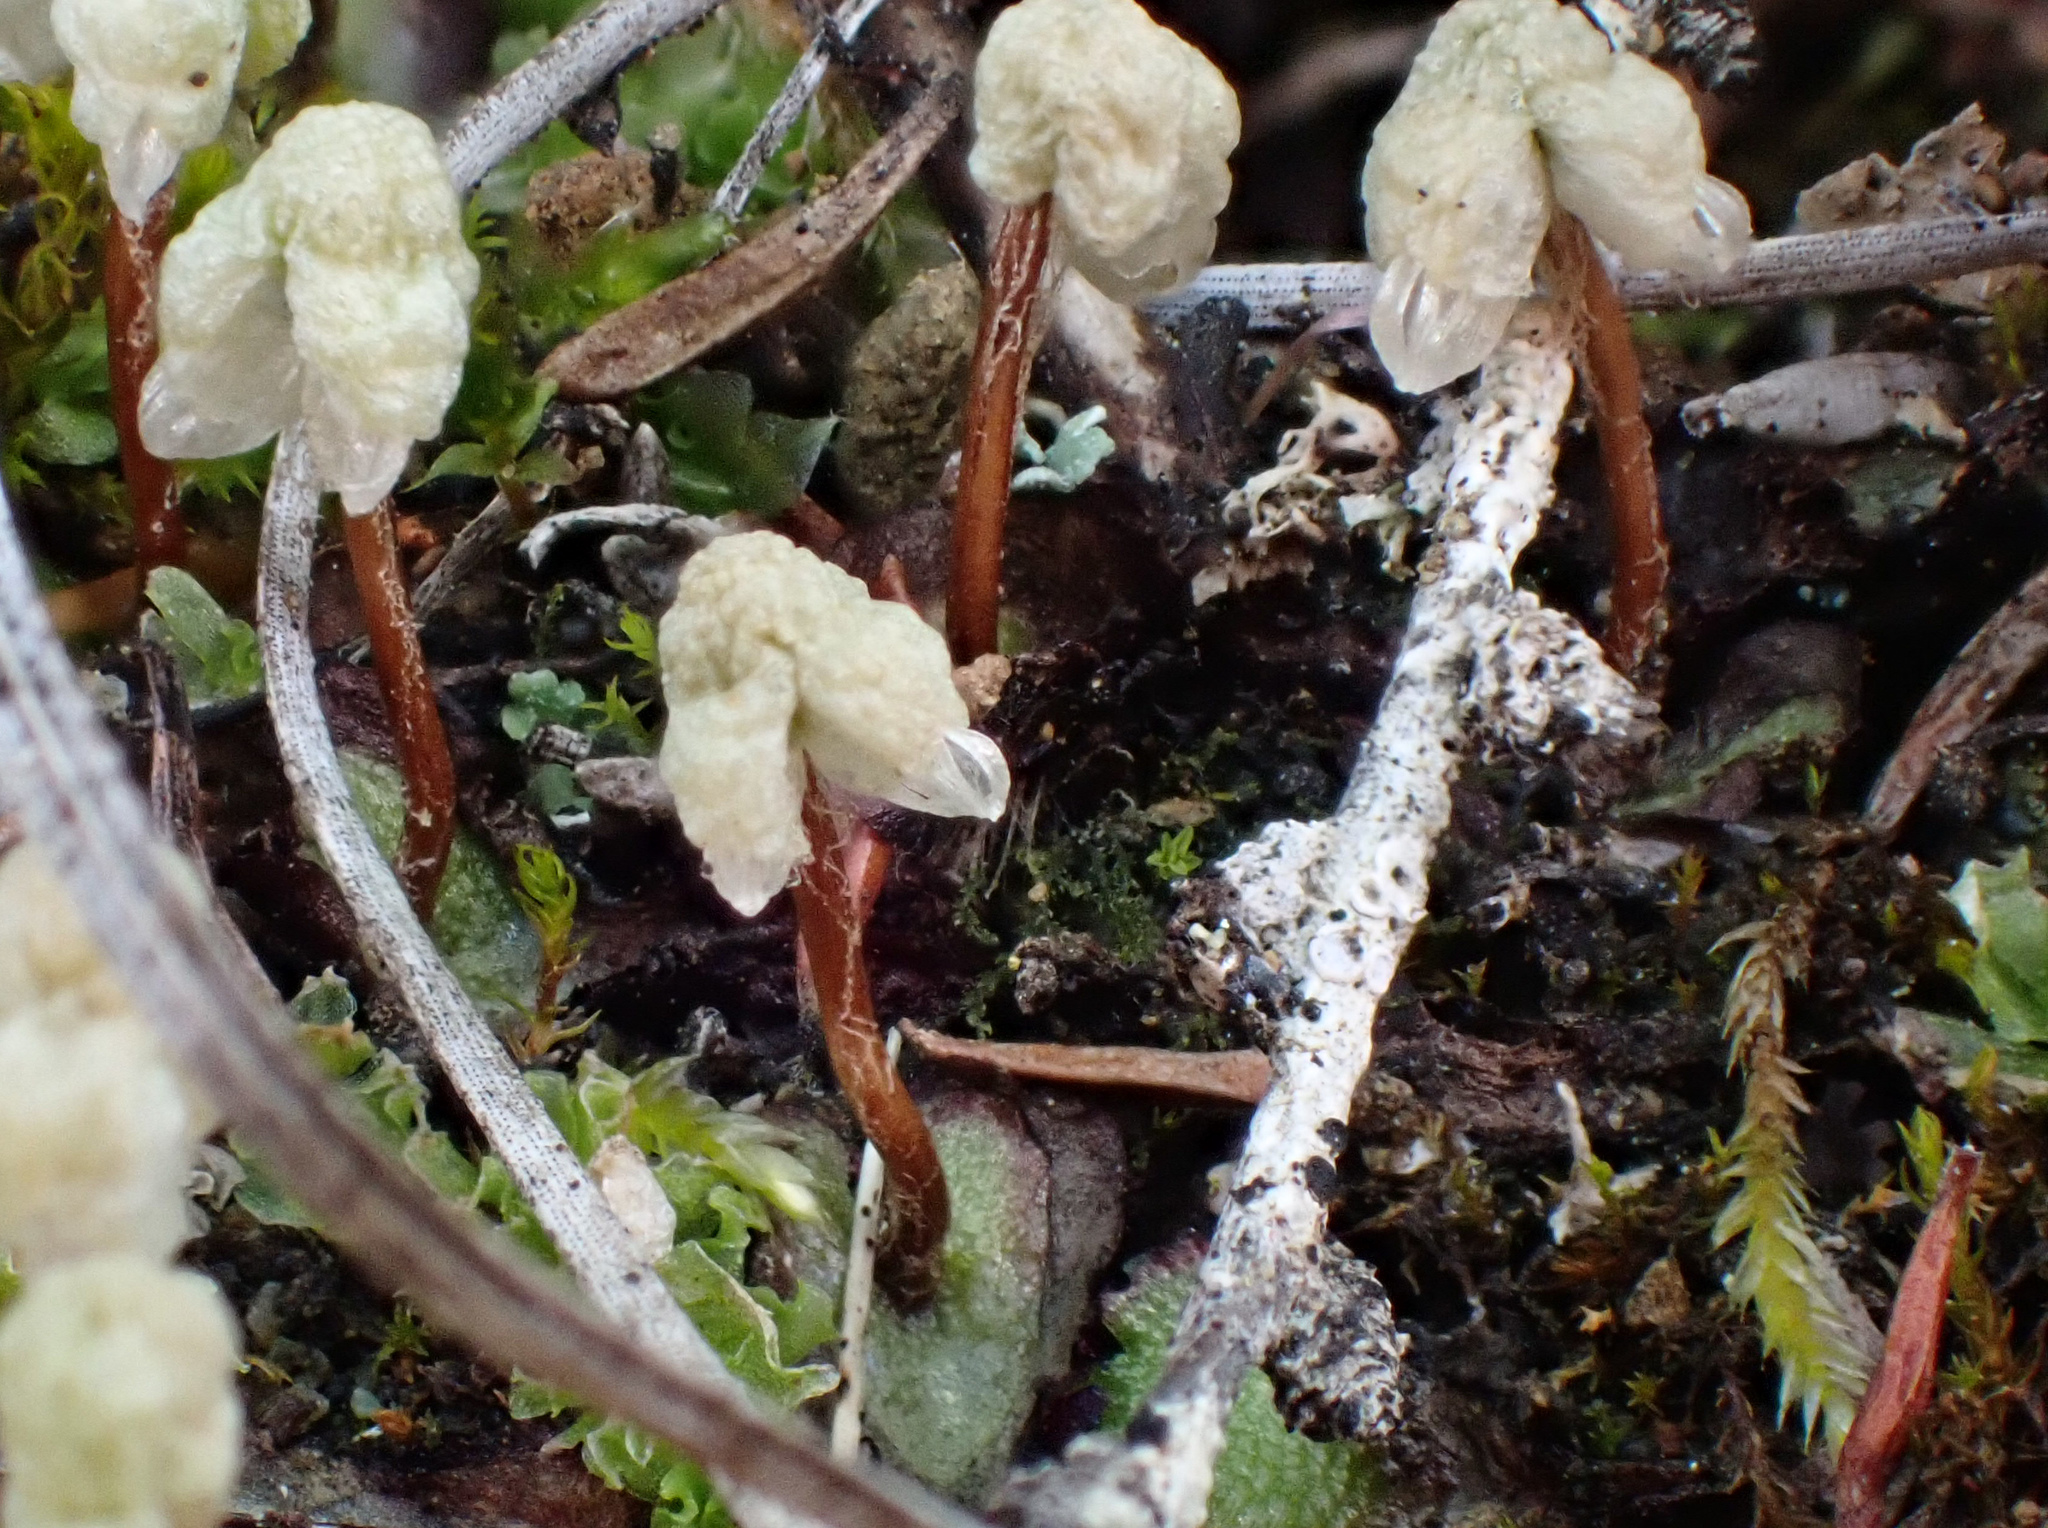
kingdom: Plantae
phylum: Marchantiophyta
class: Marchantiopsida
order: Marchantiales
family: Aytoniaceae
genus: Asterella
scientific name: Asterella californica
